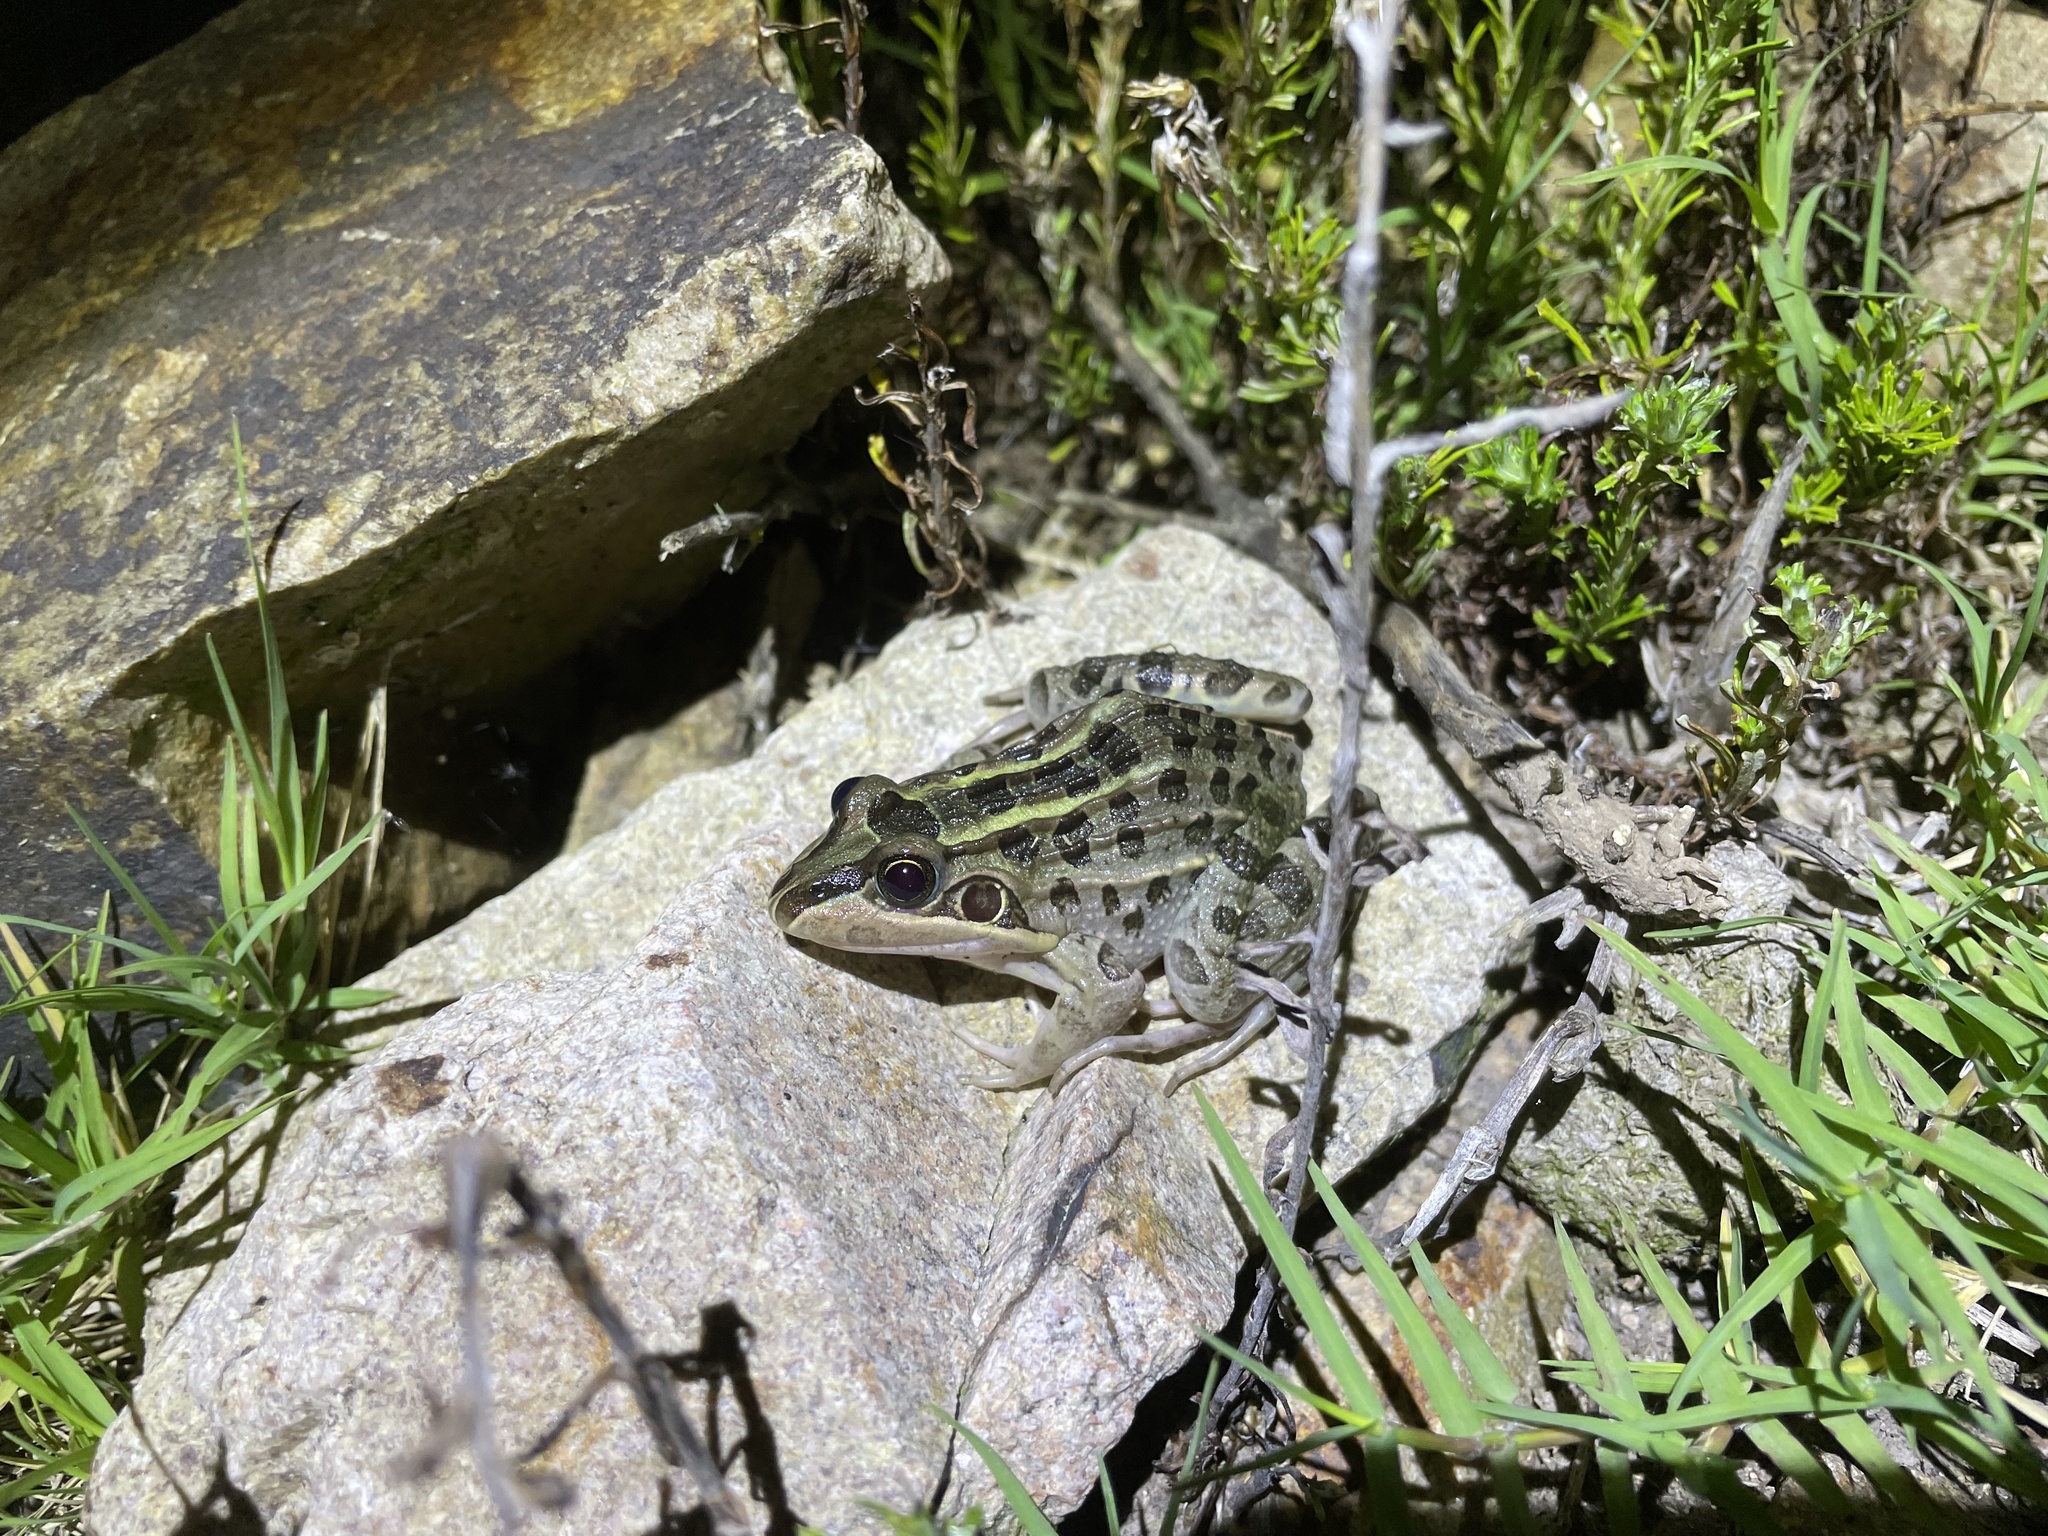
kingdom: Animalia
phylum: Chordata
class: Amphibia
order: Anura
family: Leptodactylidae
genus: Leptodactylus
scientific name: Leptodactylus luctator
